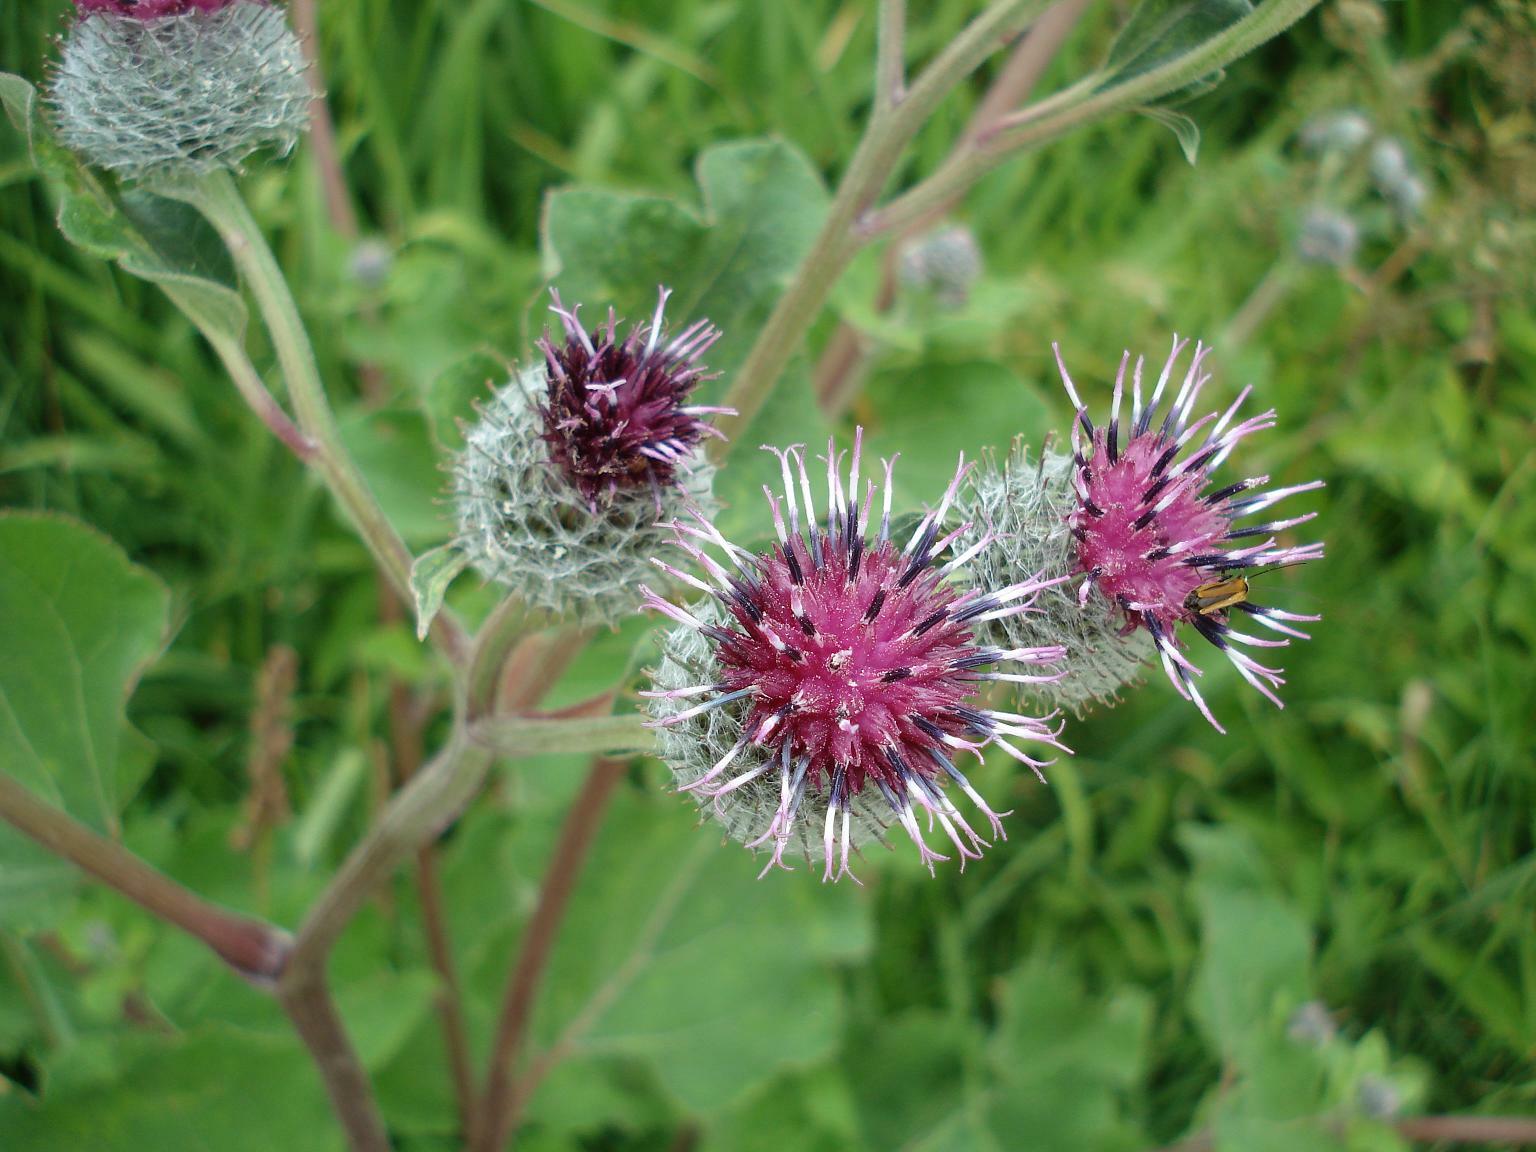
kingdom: Plantae
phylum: Tracheophyta
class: Magnoliopsida
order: Asterales
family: Asteraceae
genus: Arctium
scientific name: Arctium tomentosum
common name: Woolly burdock
